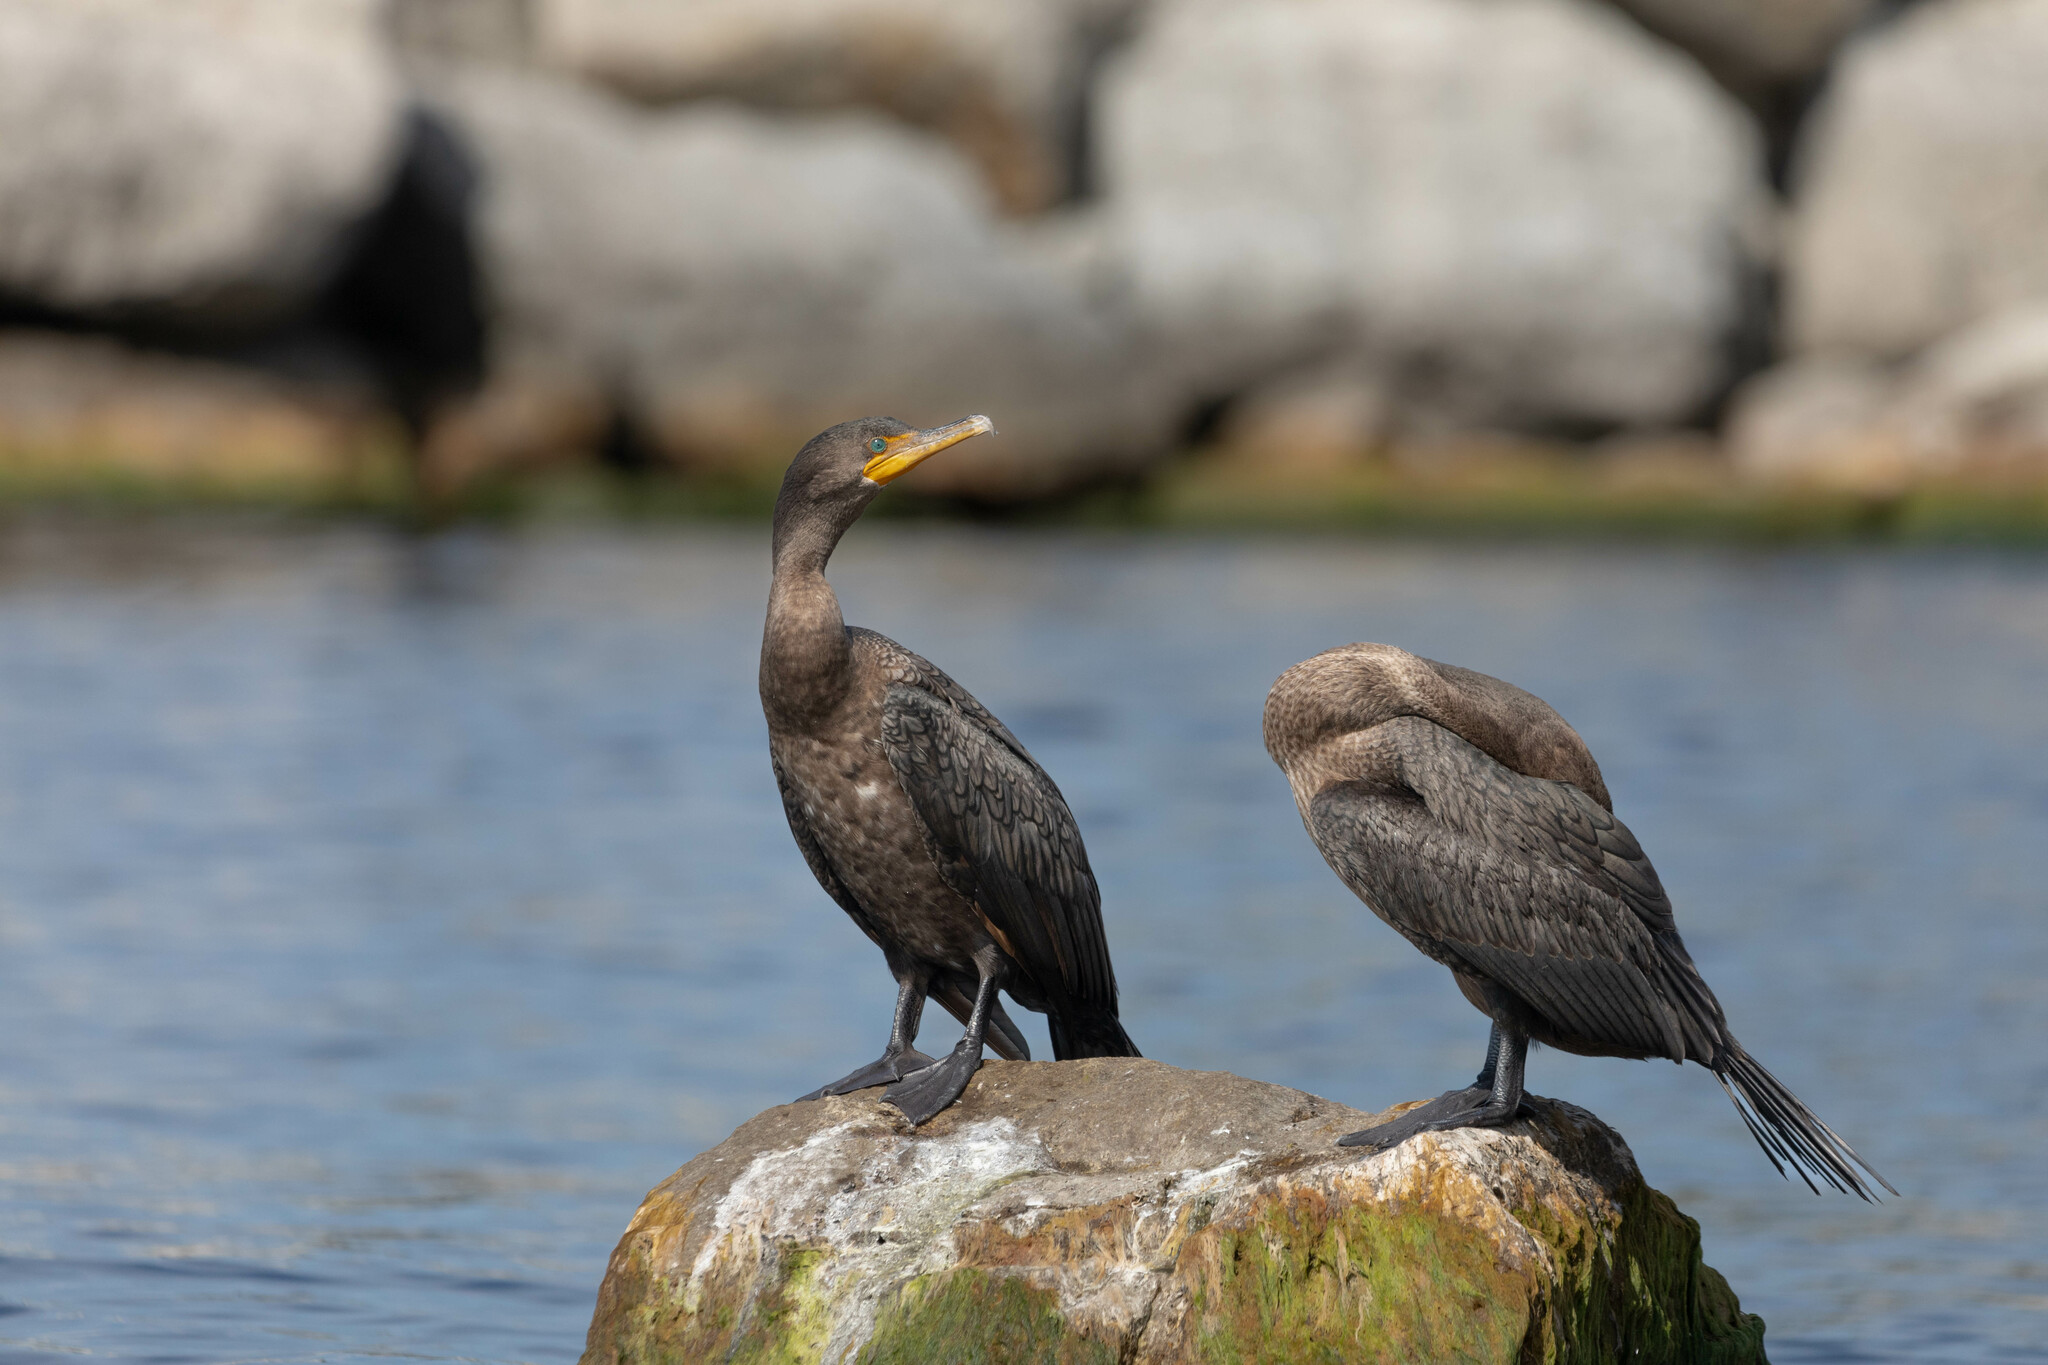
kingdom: Animalia
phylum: Chordata
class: Aves
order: Suliformes
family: Phalacrocoracidae
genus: Phalacrocorax
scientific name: Phalacrocorax auritus
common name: Double-crested cormorant
